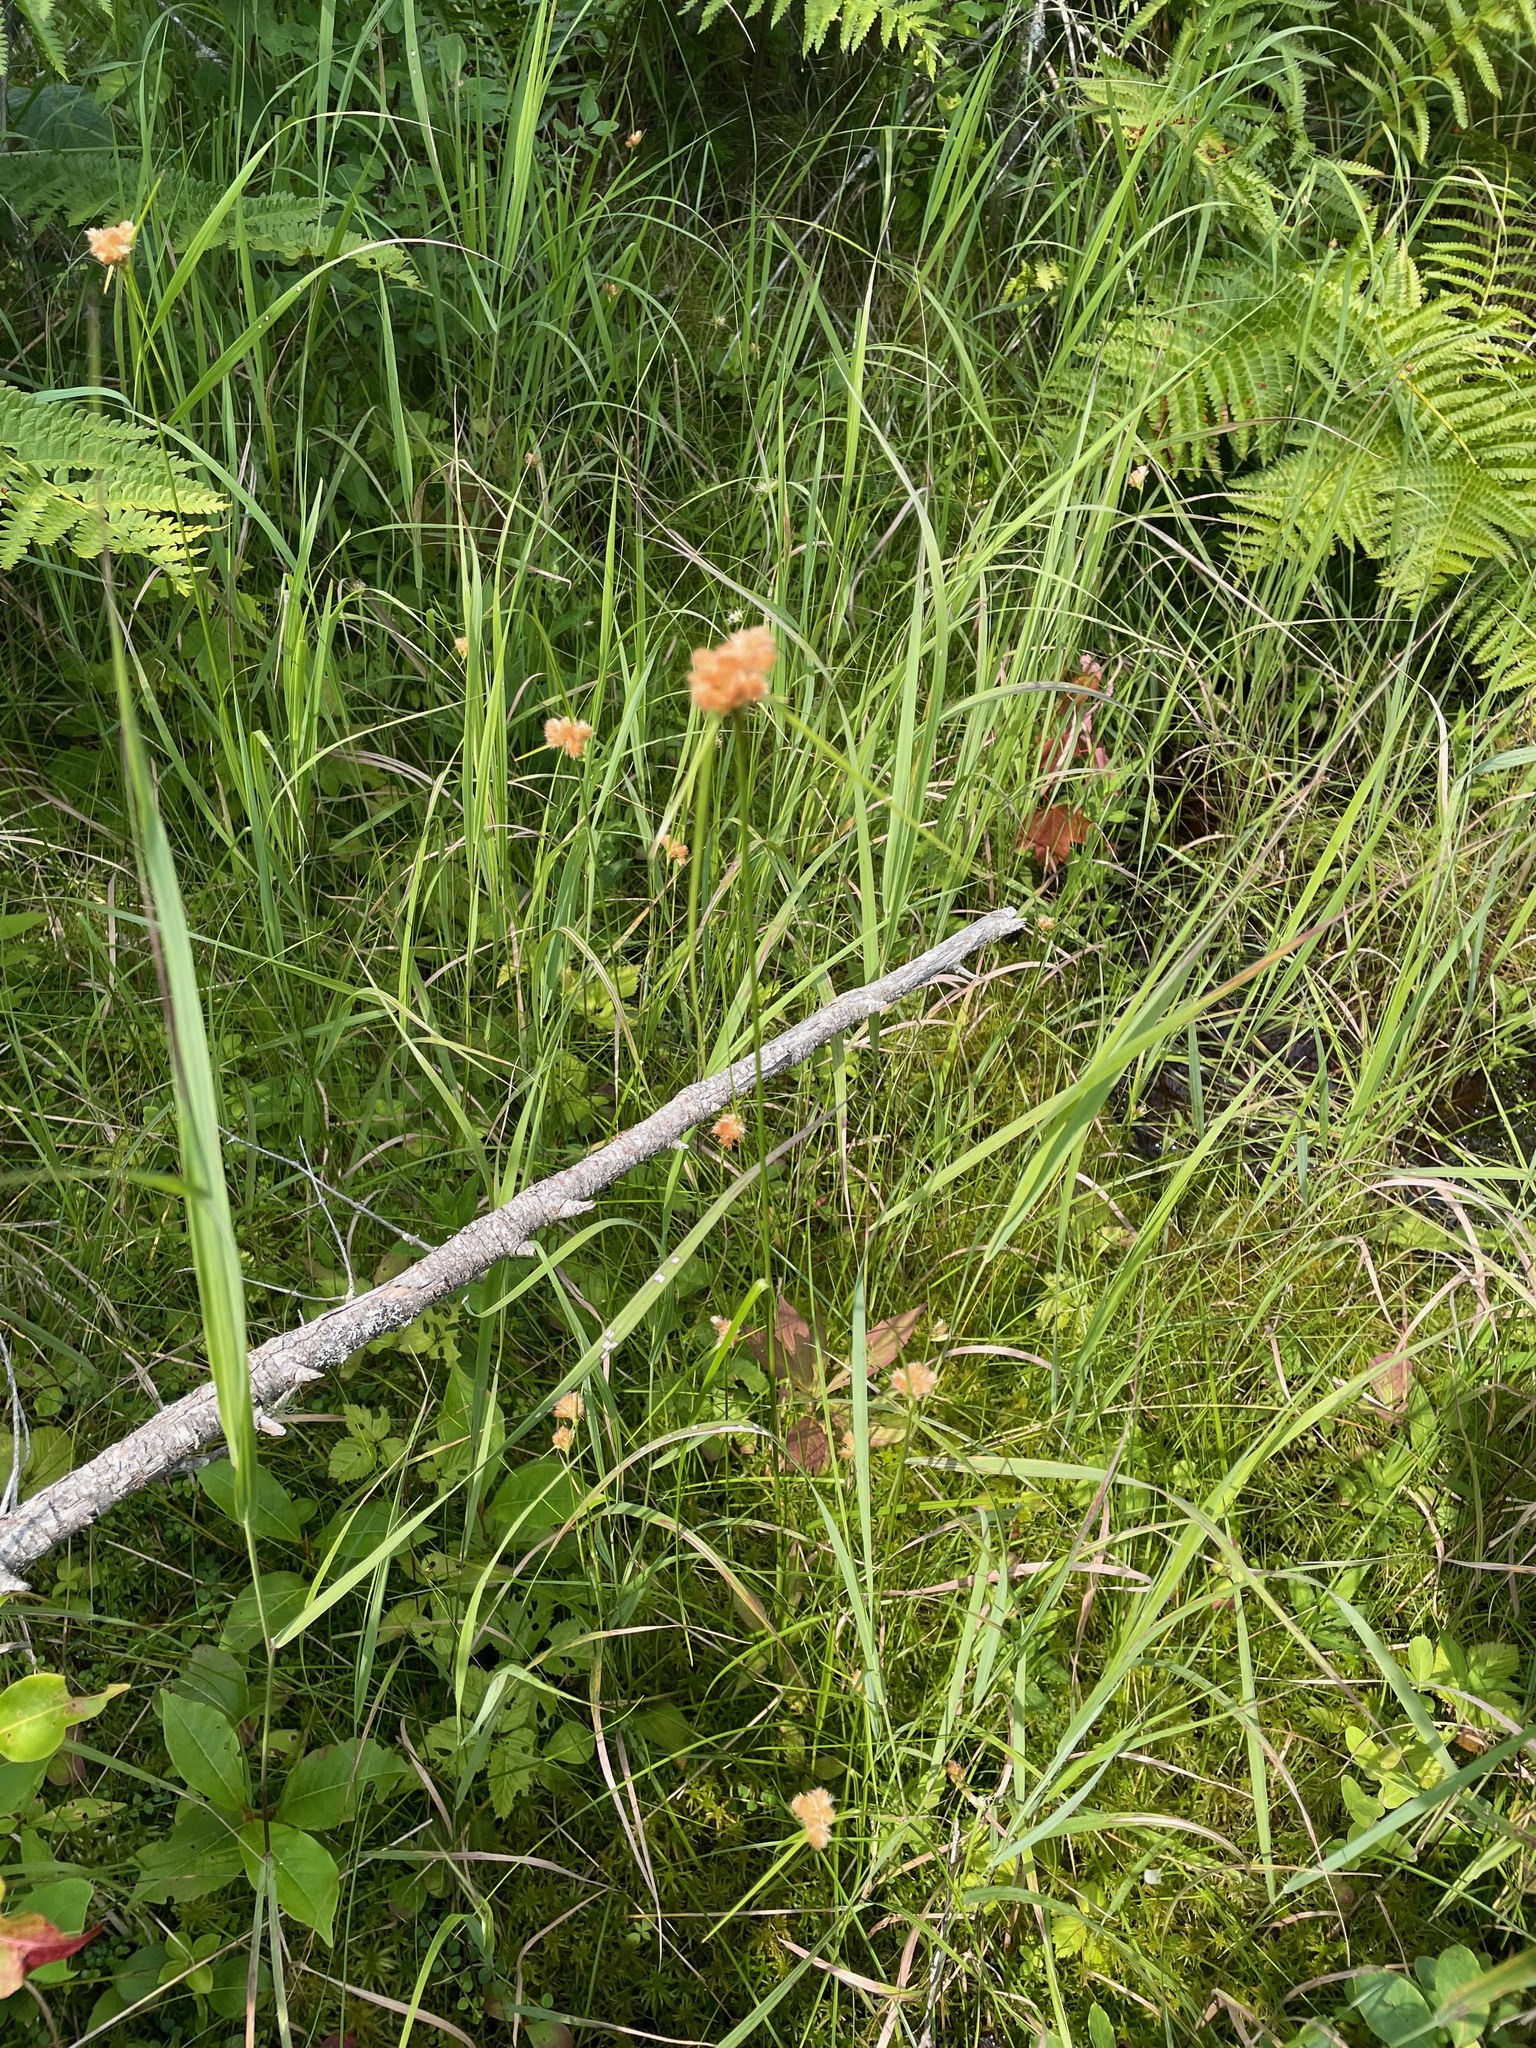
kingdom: Plantae
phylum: Tracheophyta
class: Liliopsida
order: Poales
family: Cyperaceae
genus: Eriophorum
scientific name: Eriophorum virginicum
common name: Tawny cottongrass
